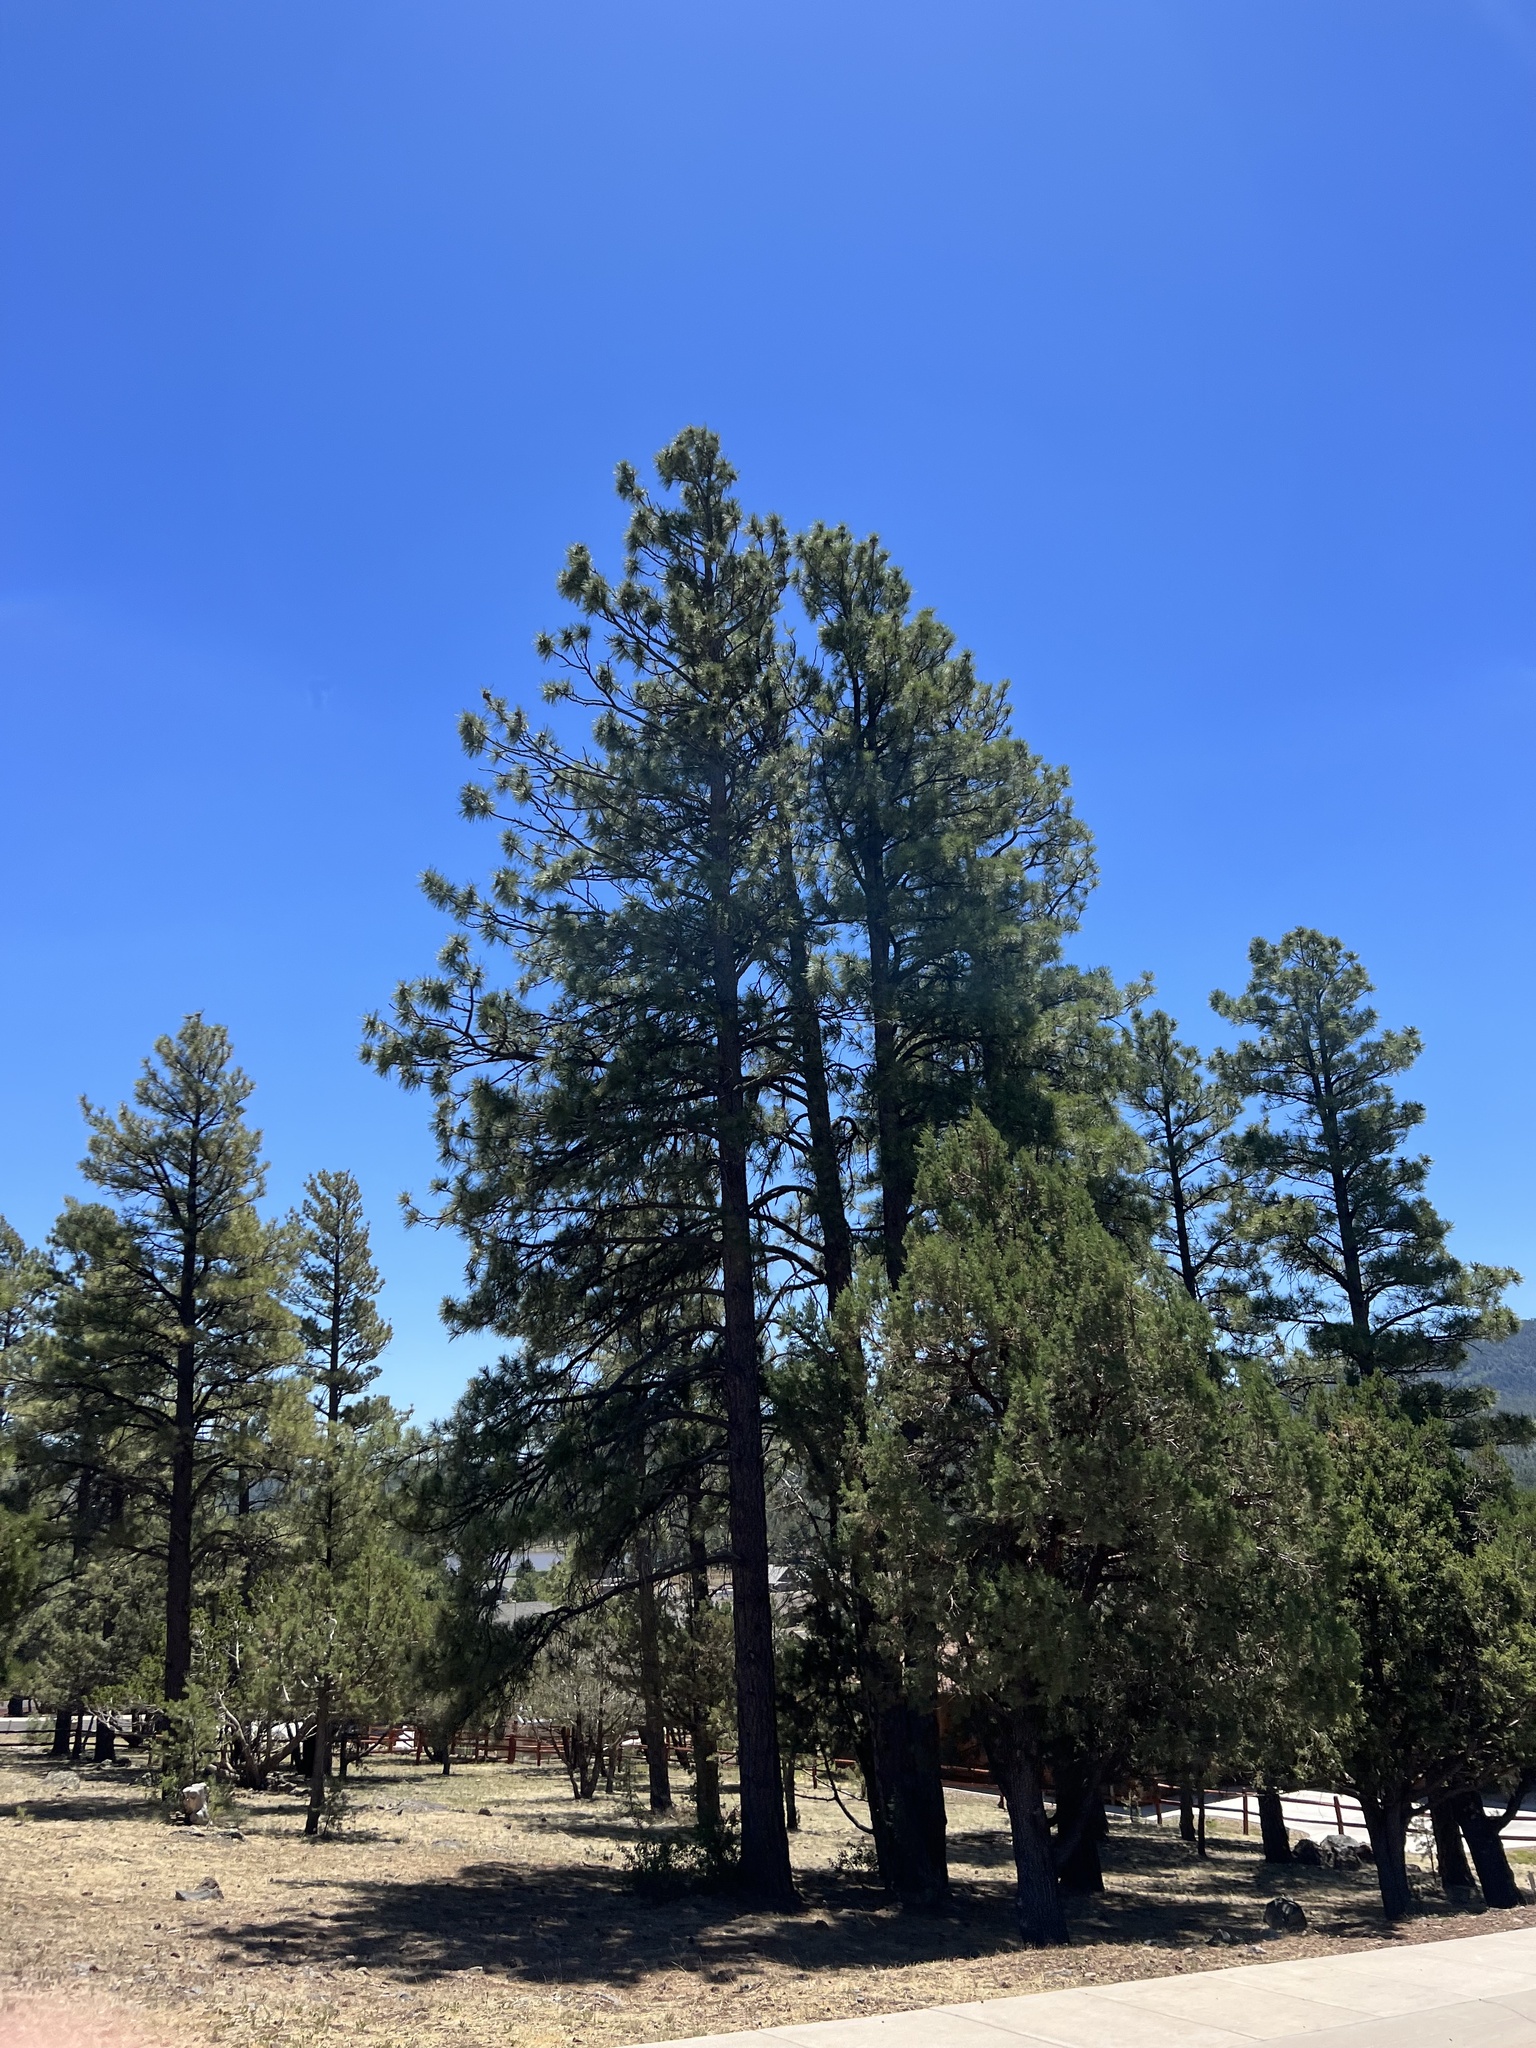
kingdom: Plantae
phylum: Tracheophyta
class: Pinopsida
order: Pinales
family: Pinaceae
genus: Pinus
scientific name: Pinus ponderosa
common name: Western yellow-pine
